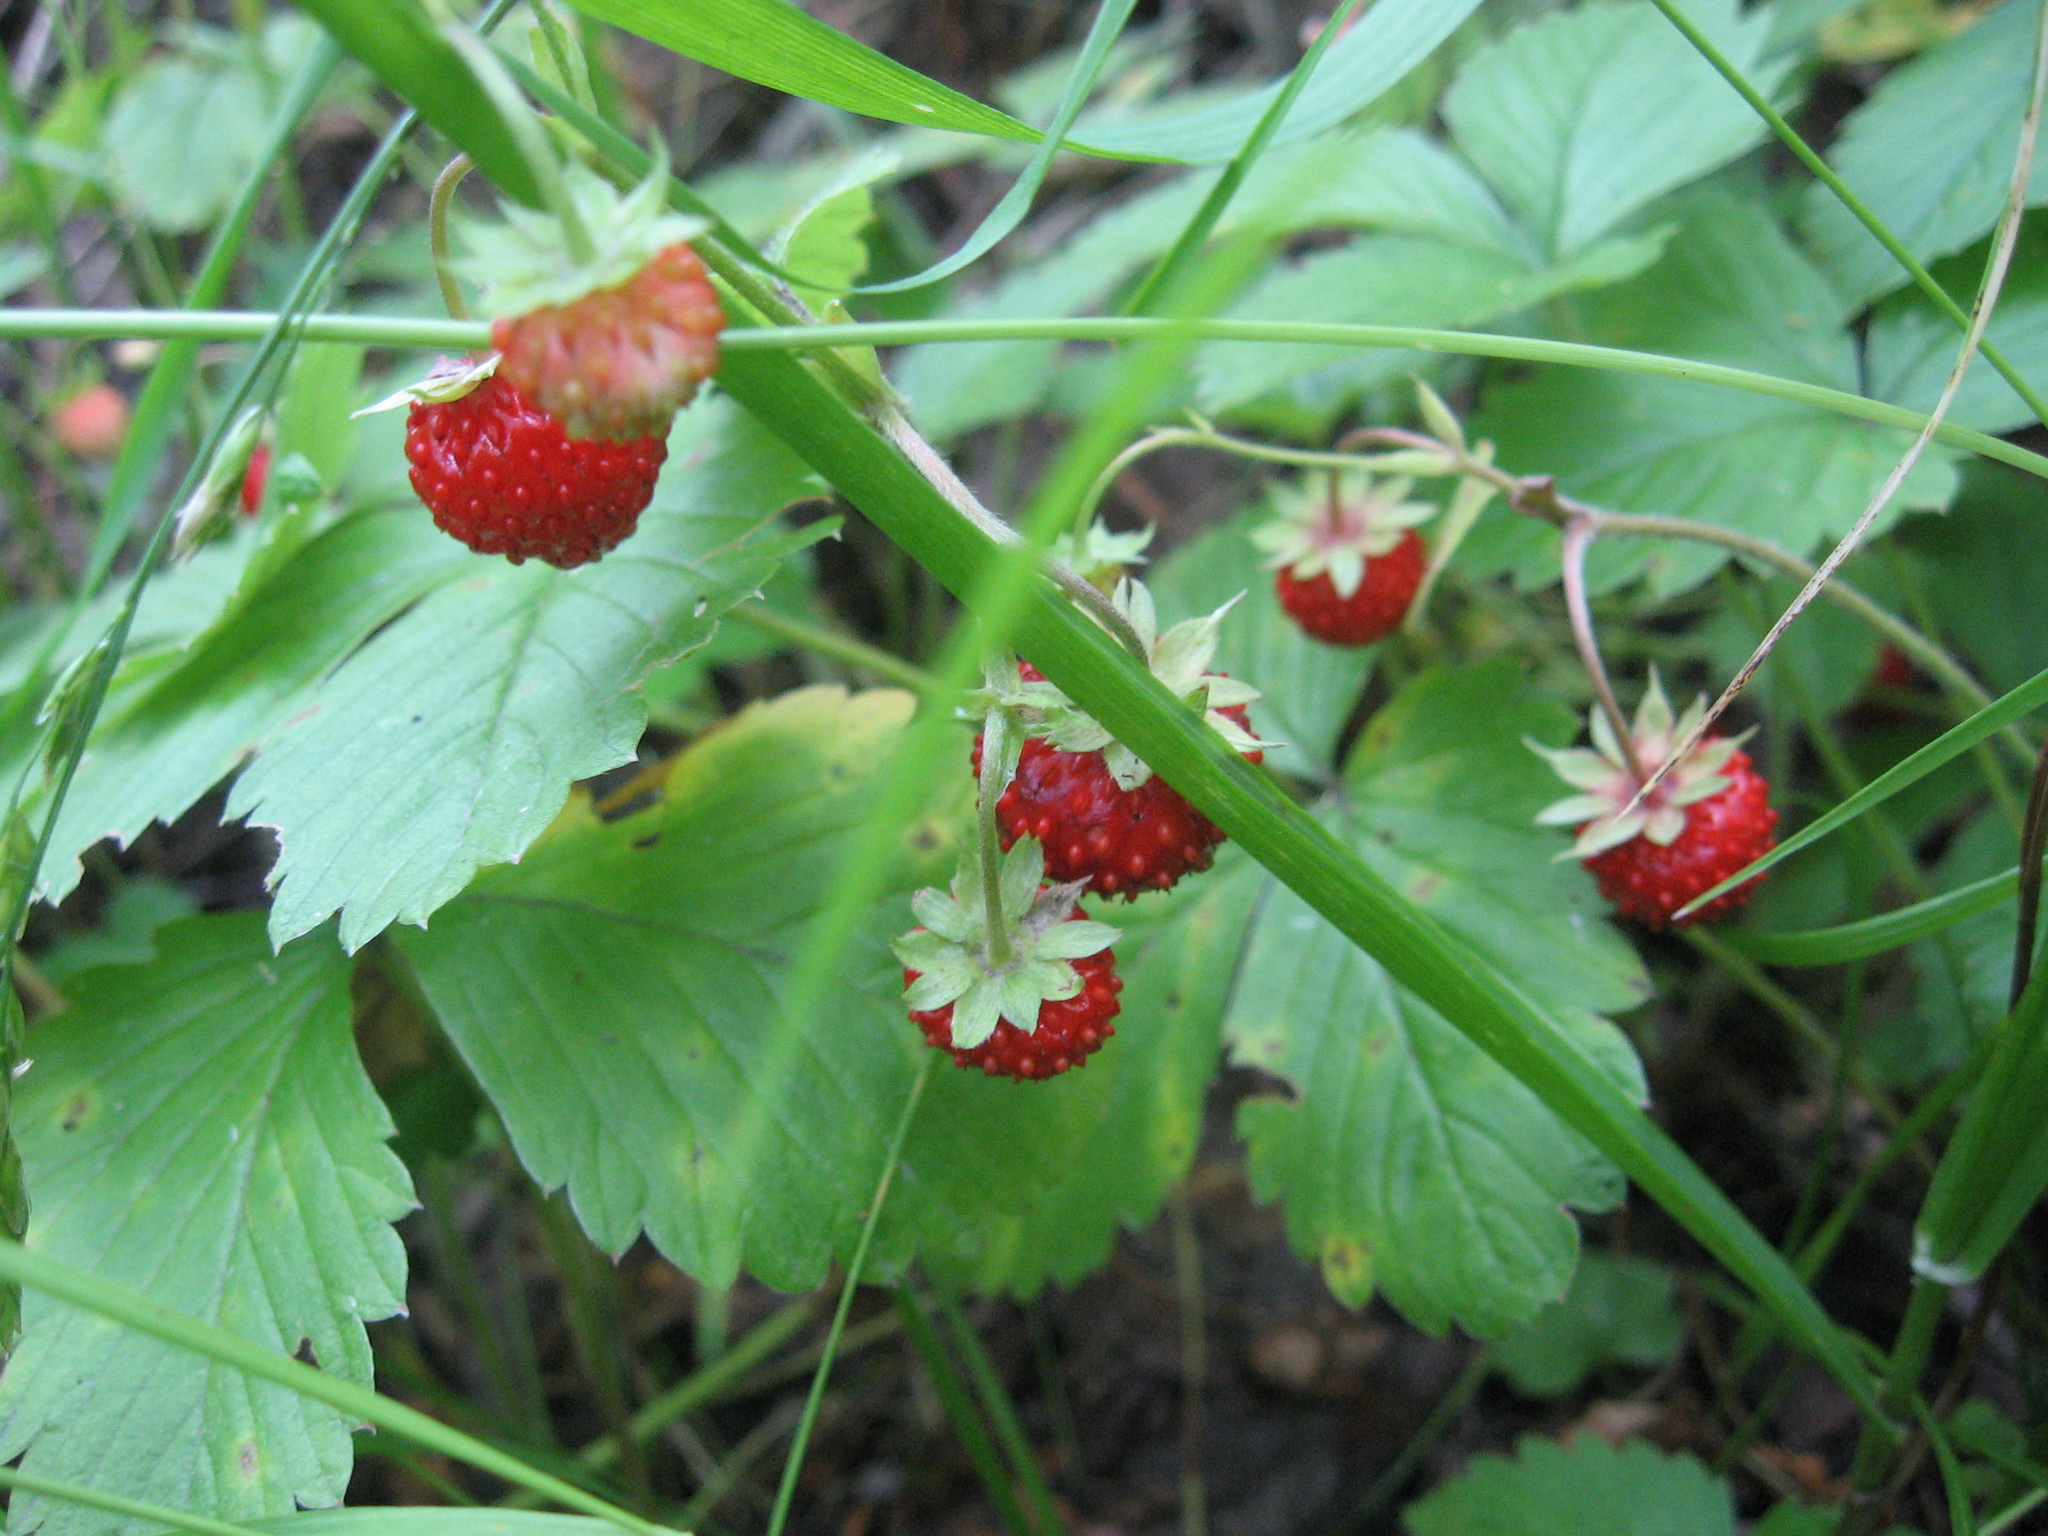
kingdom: Plantae
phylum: Tracheophyta
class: Magnoliopsida
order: Rosales
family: Rosaceae
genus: Fragaria
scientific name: Fragaria vesca
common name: Wild strawberry
